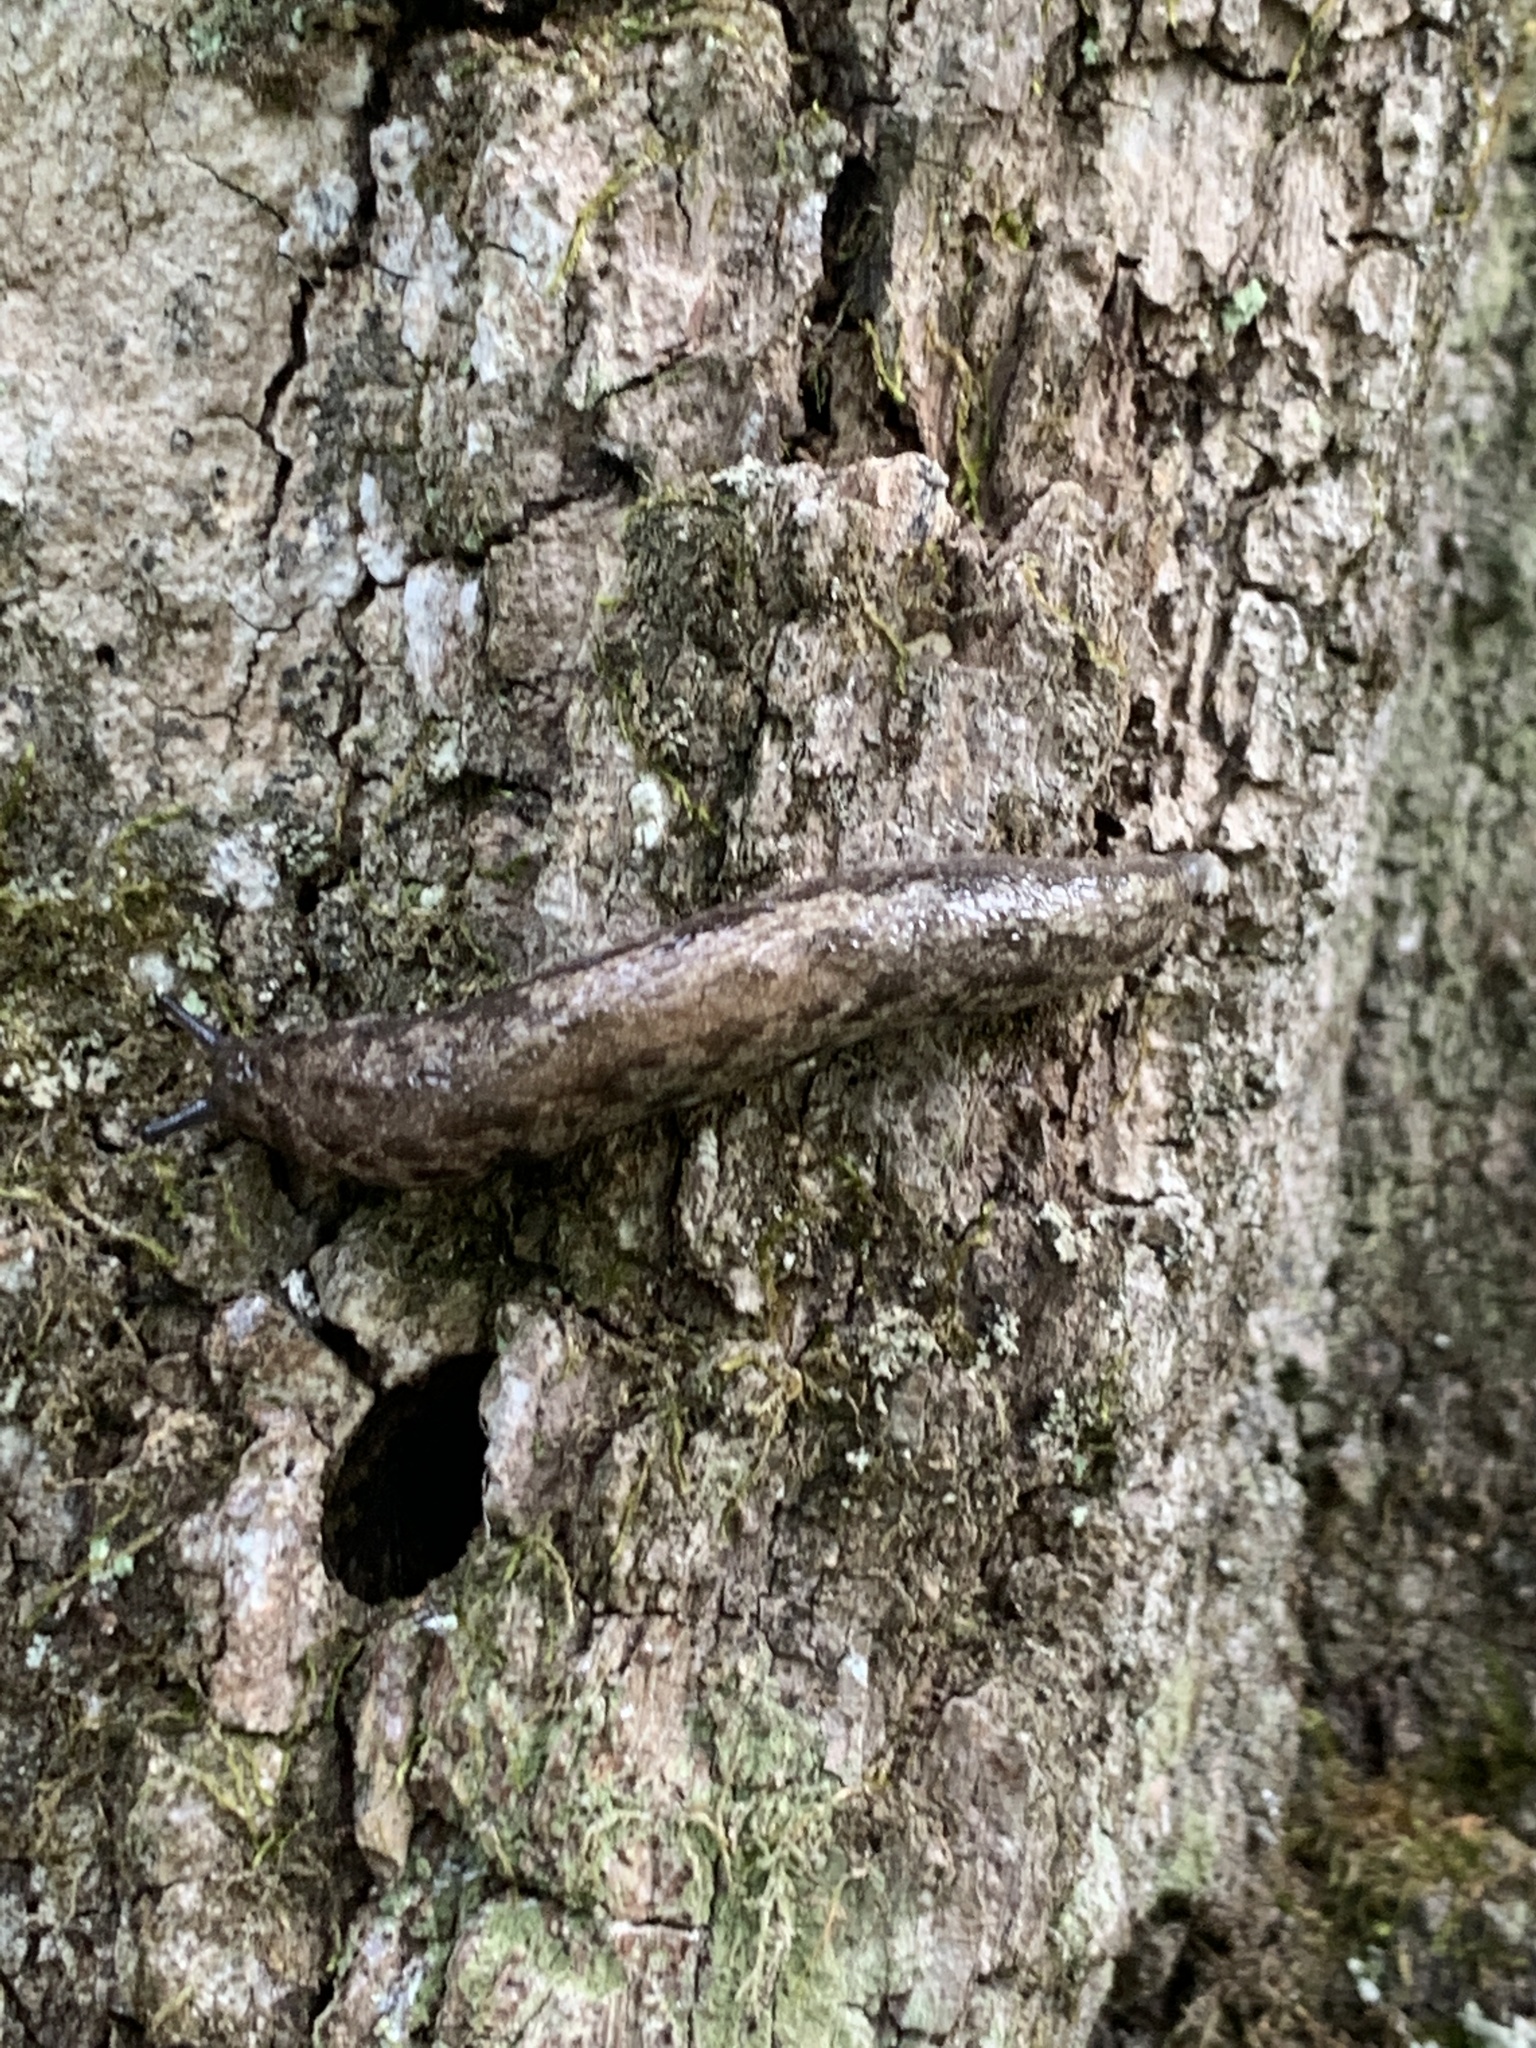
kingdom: Animalia
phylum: Mollusca
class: Gastropoda
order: Stylommatophora
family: Philomycidae
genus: Megapallifera
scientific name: Megapallifera mutabilis
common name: Changeable mantleslug
